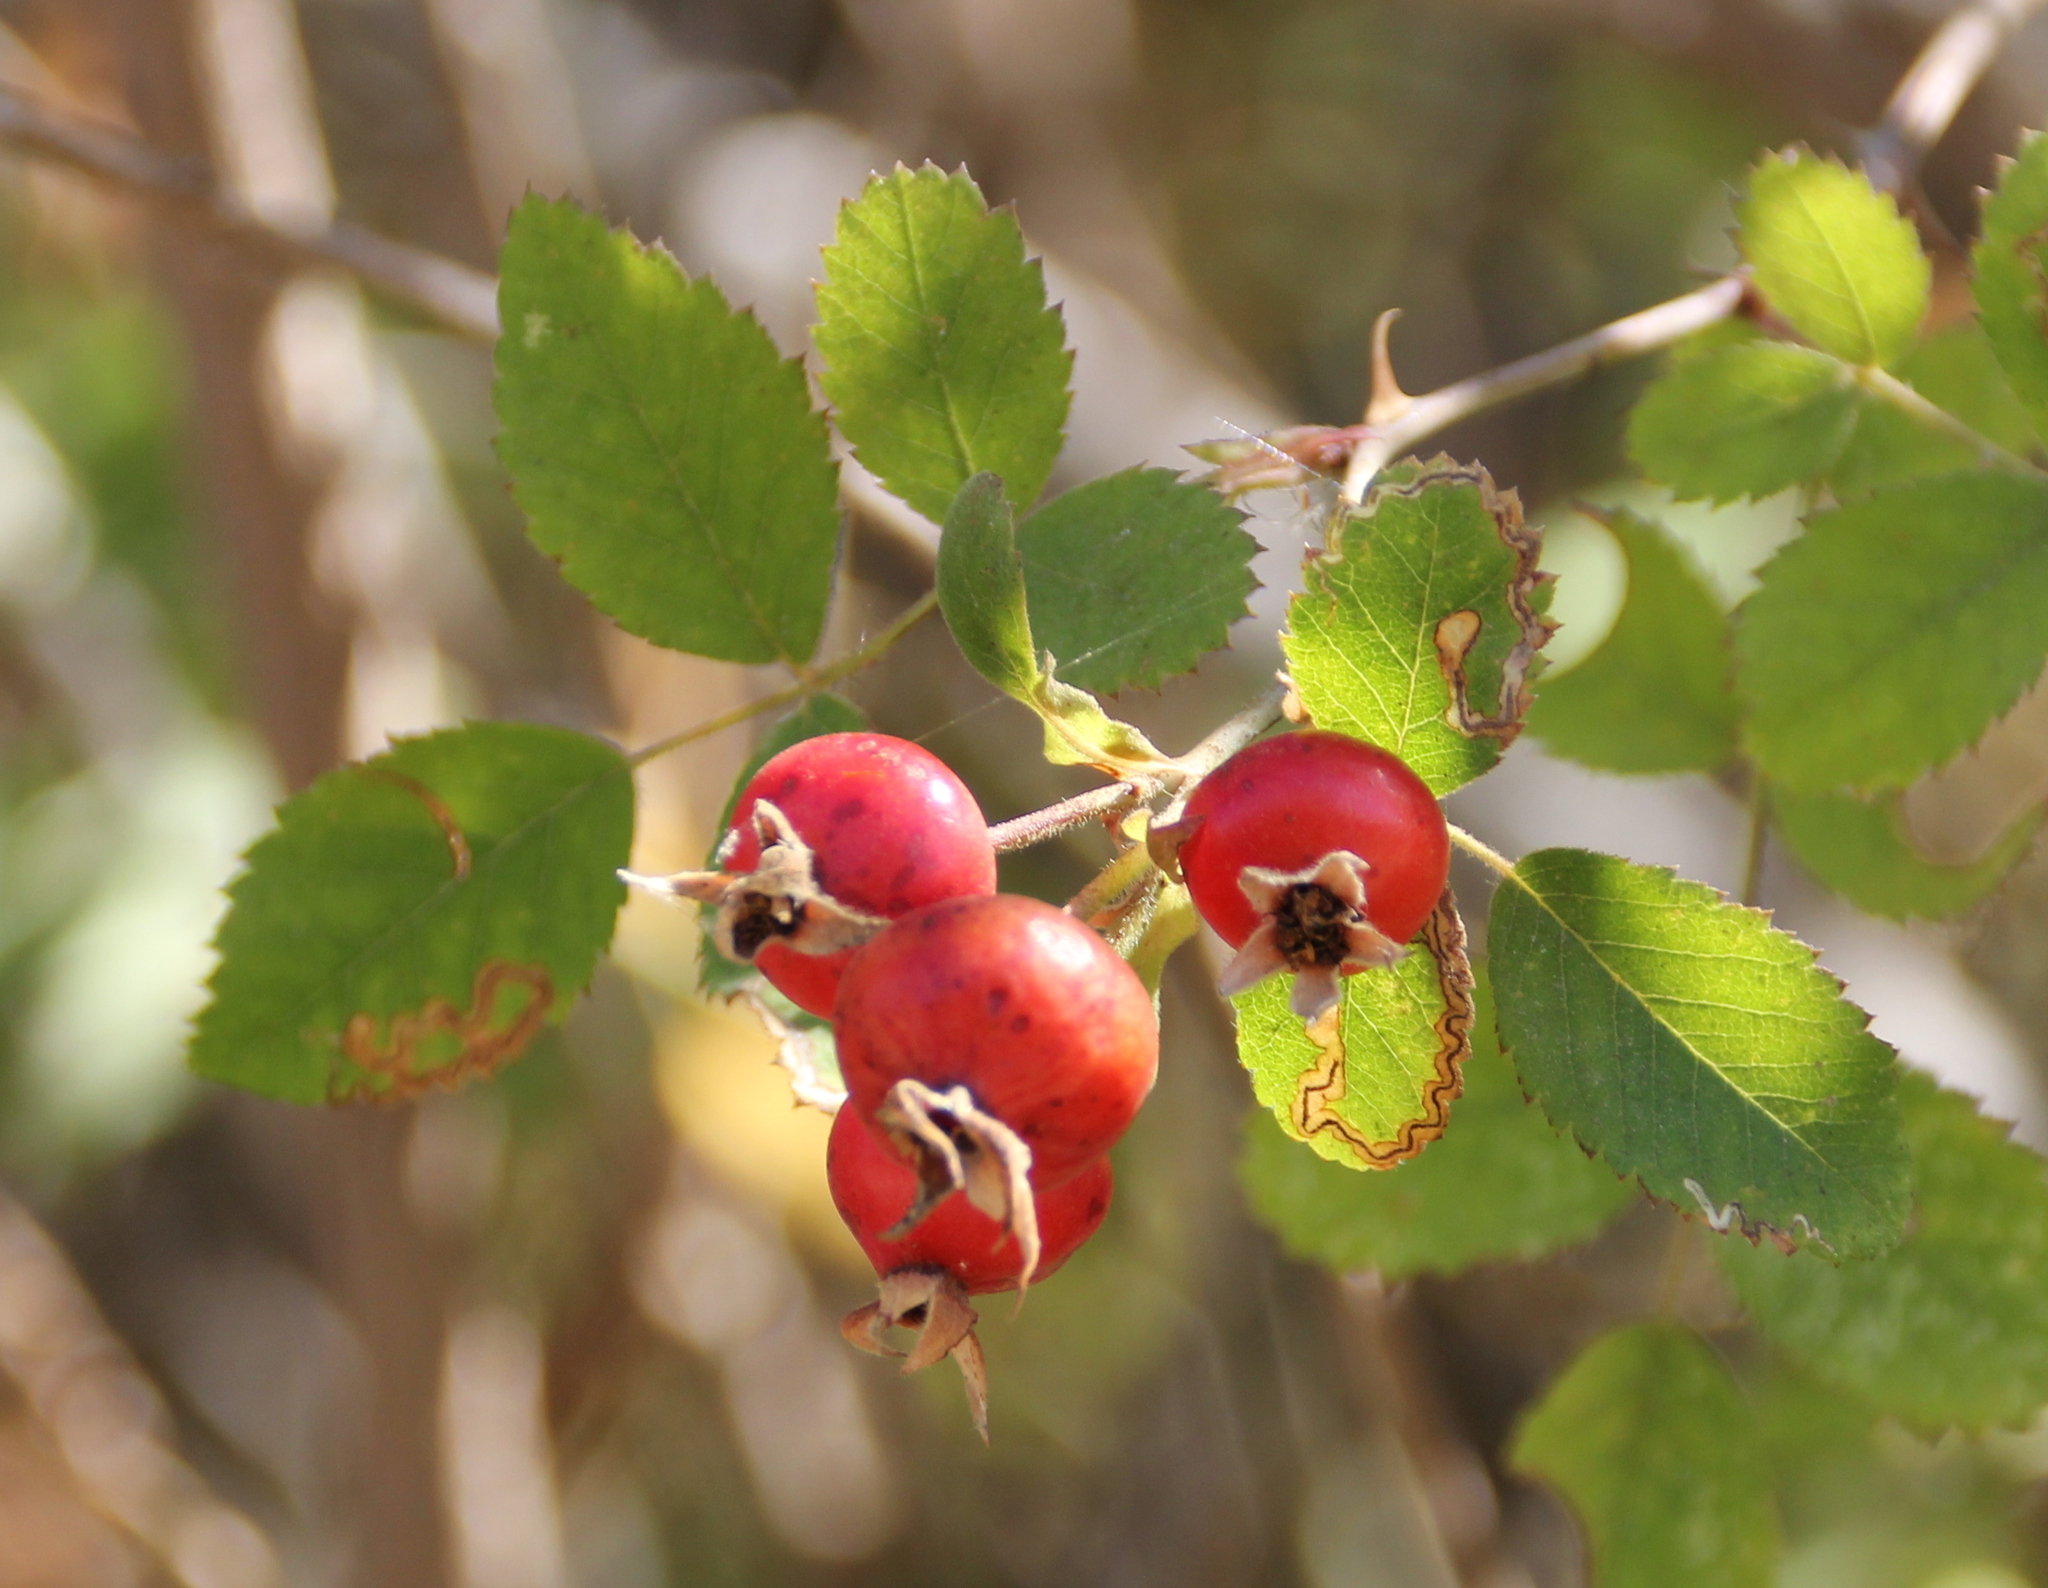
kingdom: Plantae
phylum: Tracheophyta
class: Magnoliopsida
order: Rosales
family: Rosaceae
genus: Rosa
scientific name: Rosa californica
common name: California rose
